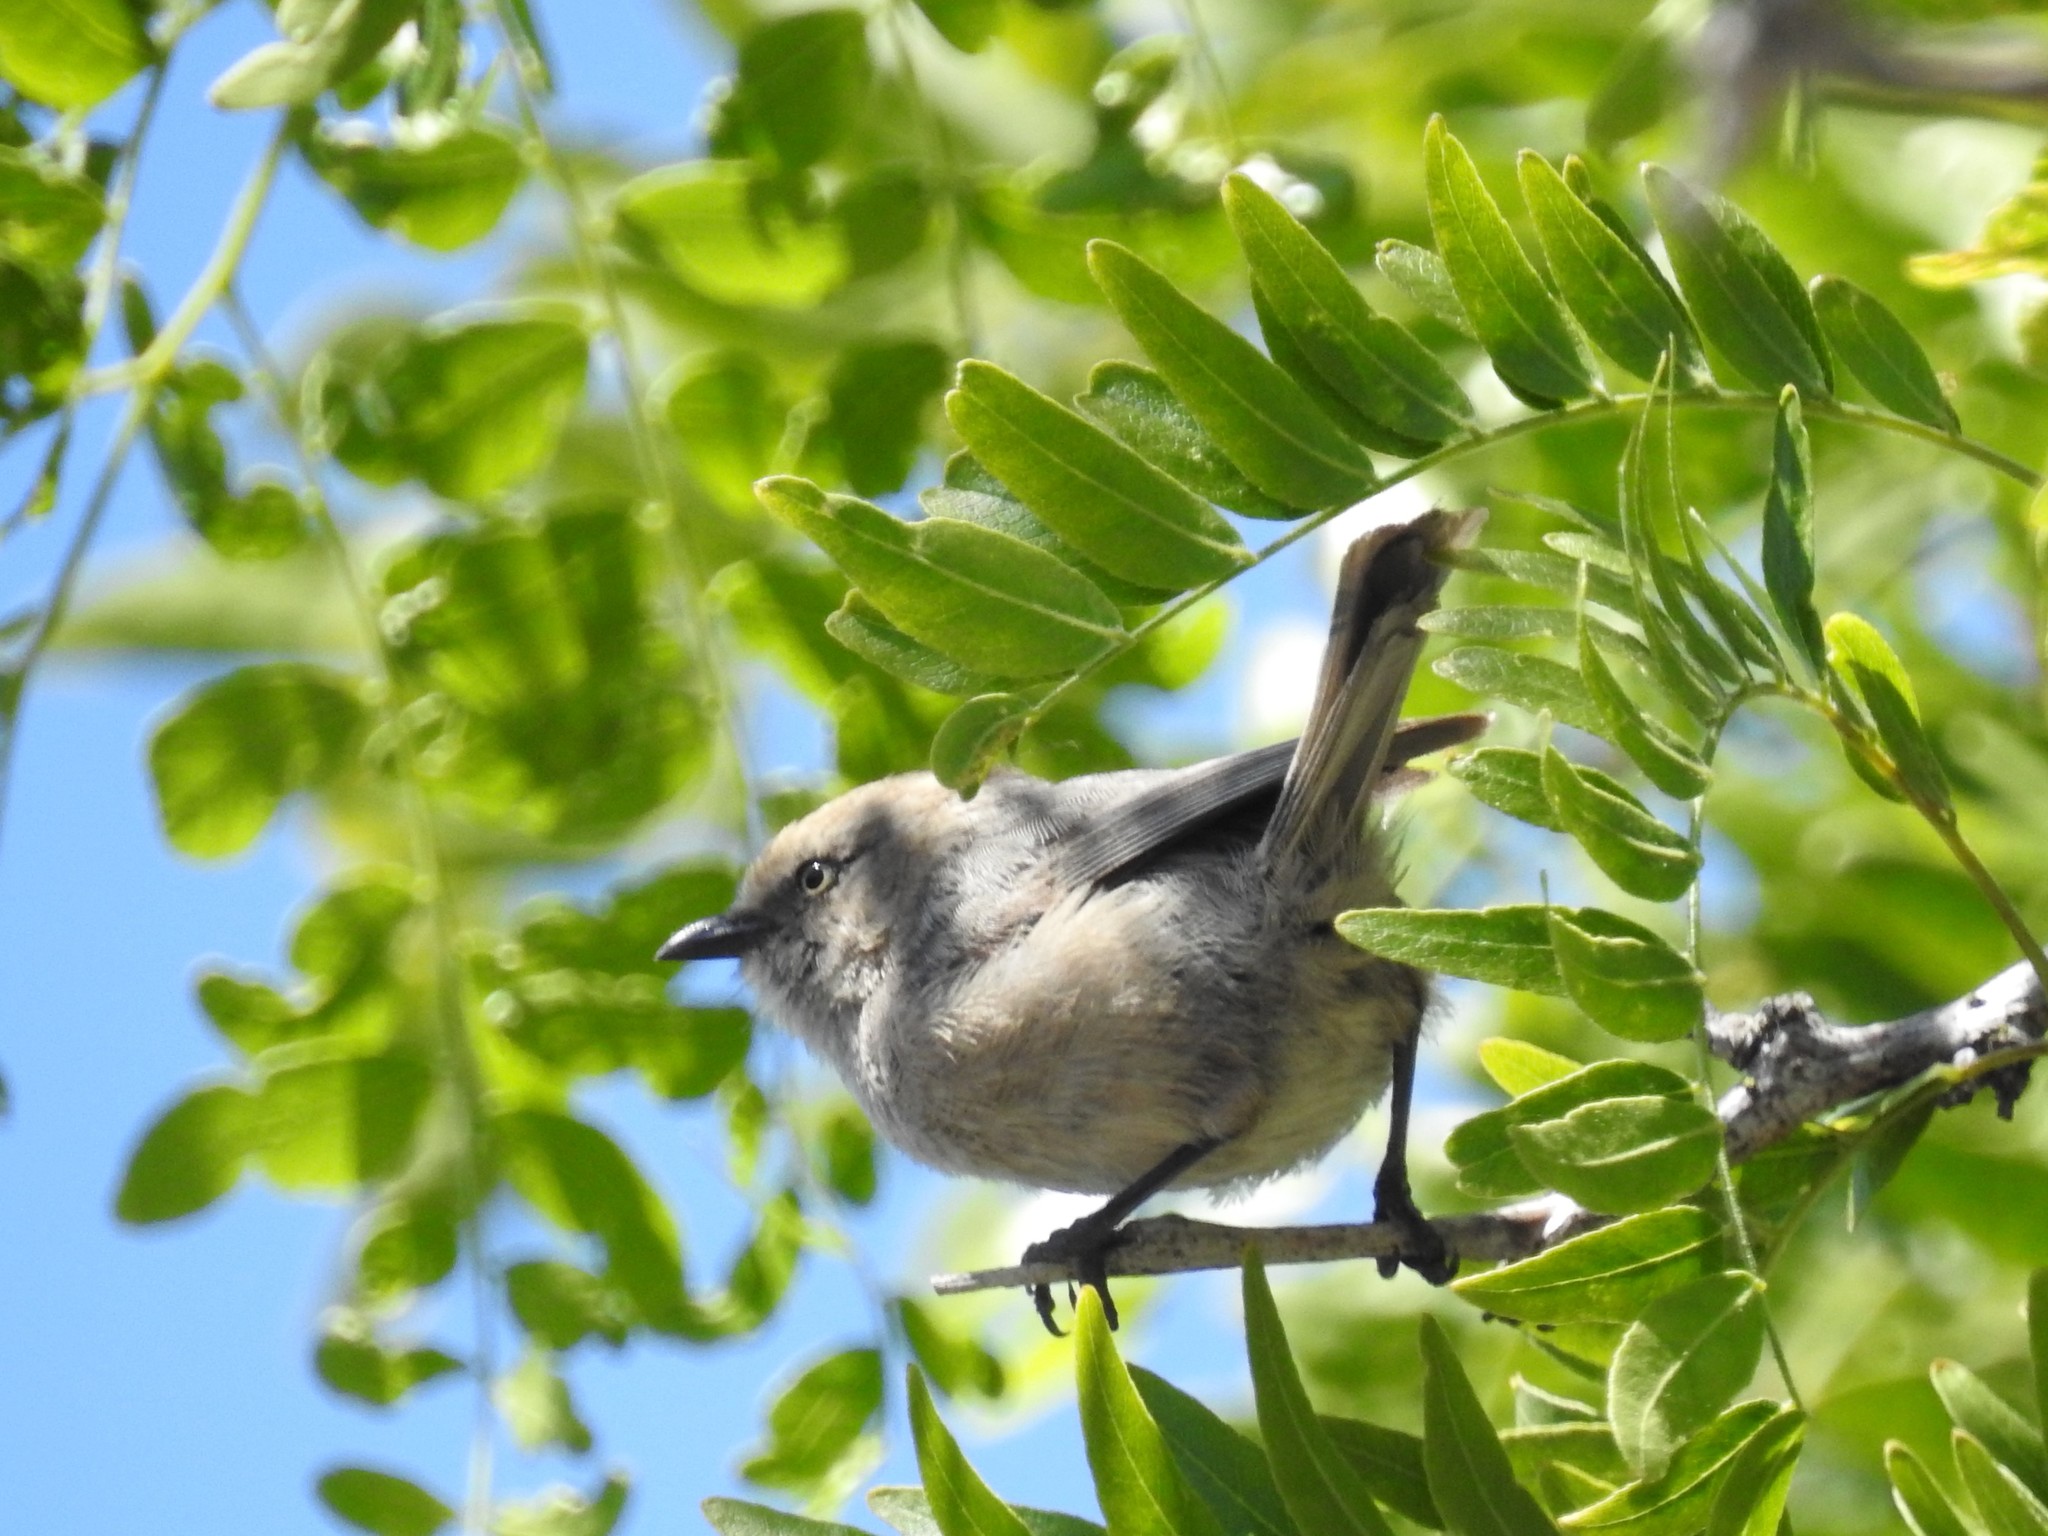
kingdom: Animalia
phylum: Chordata
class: Aves
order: Passeriformes
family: Aegithalidae
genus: Psaltriparus
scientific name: Psaltriparus minimus
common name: American bushtit
